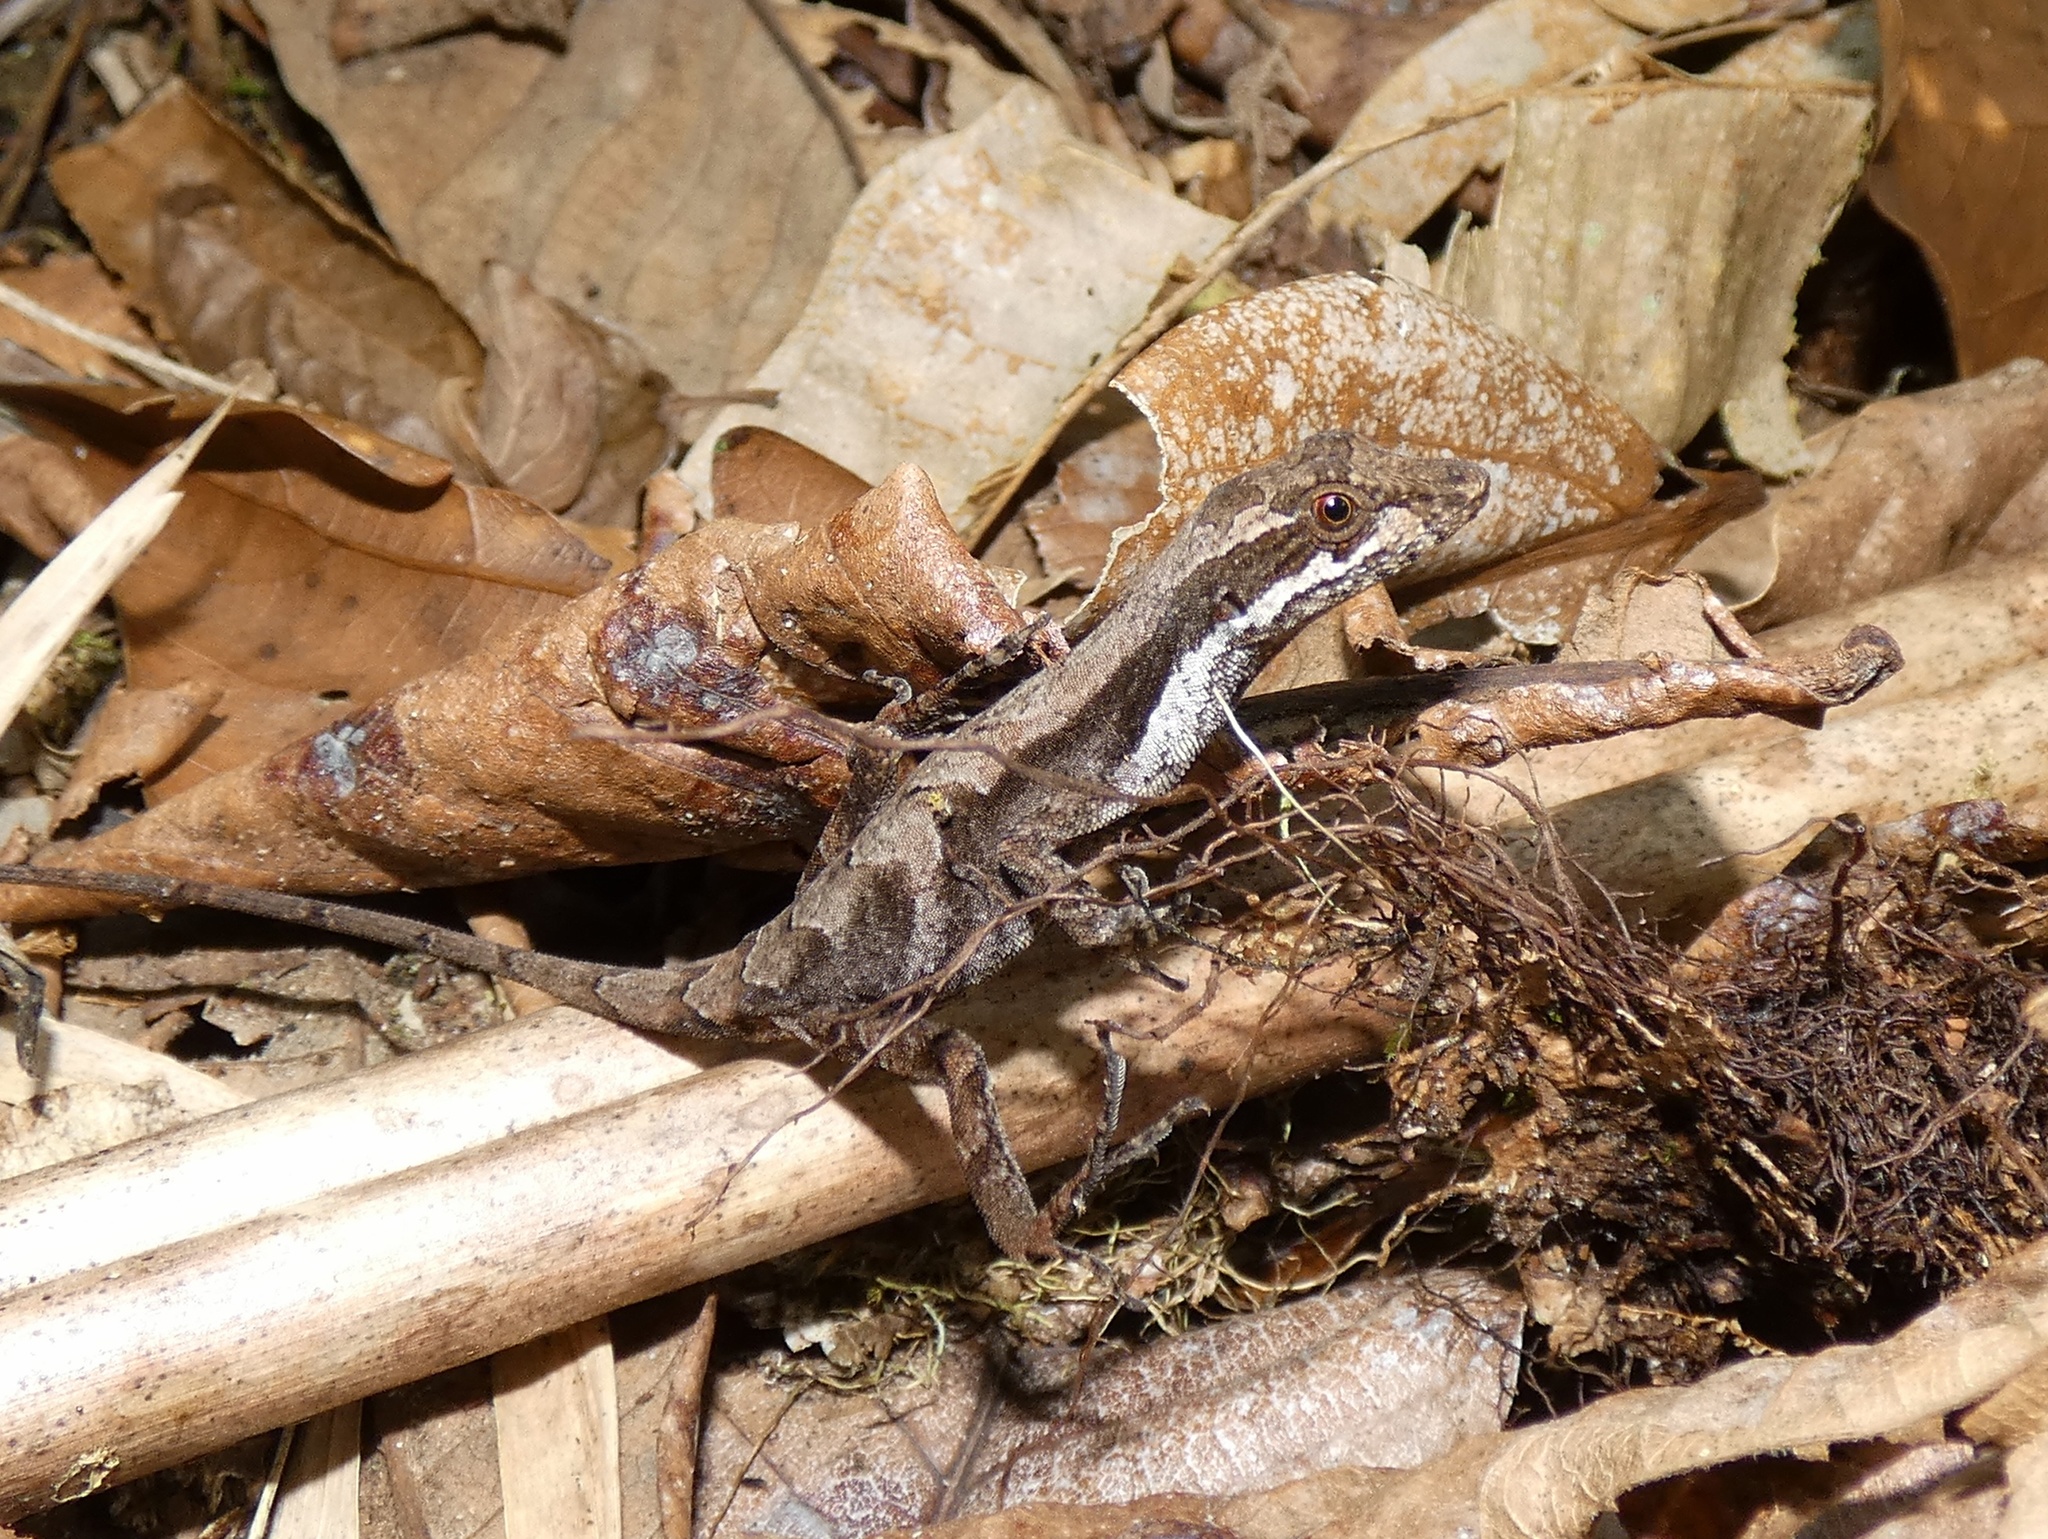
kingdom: Animalia
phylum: Chordata
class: Squamata
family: Dactyloidae
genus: Anolis
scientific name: Anolis magnaphallus
